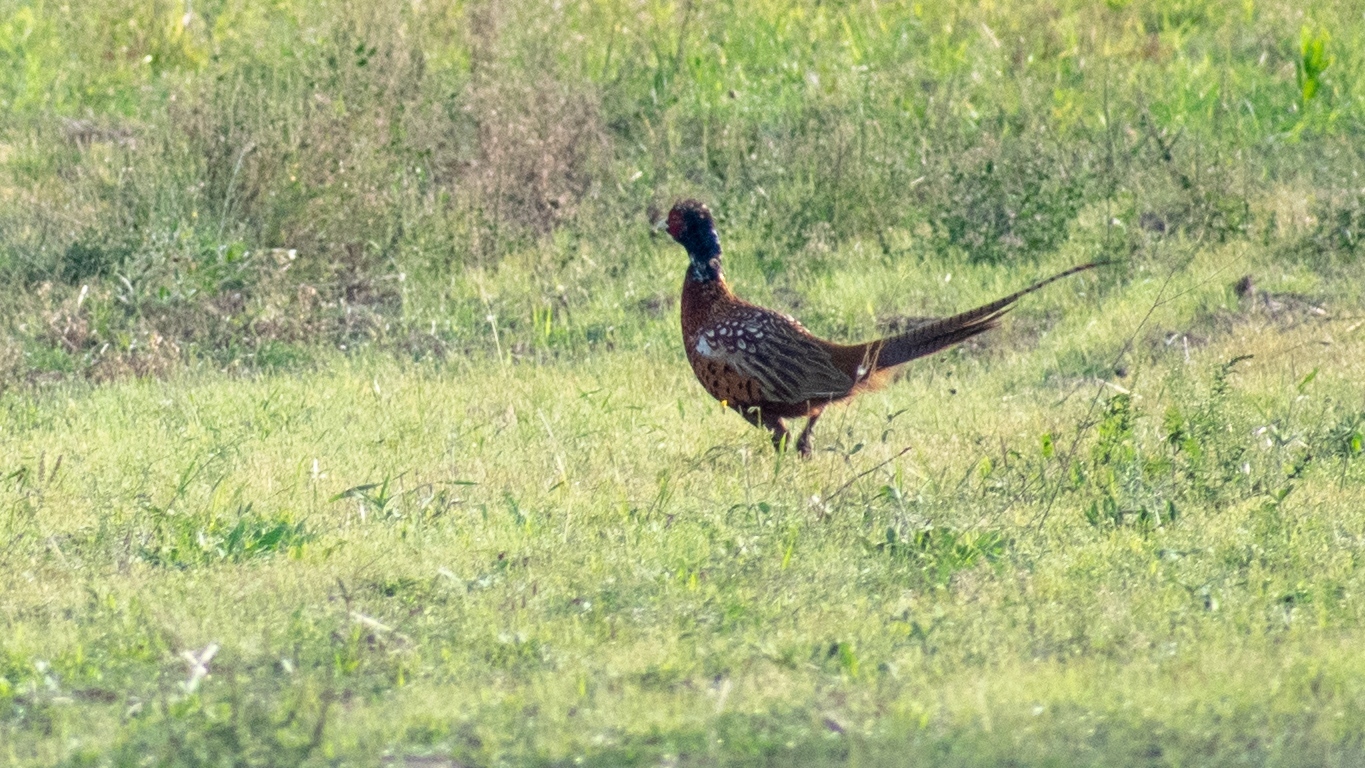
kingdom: Animalia
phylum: Chordata
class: Aves
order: Galliformes
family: Phasianidae
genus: Phasianus
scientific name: Phasianus colchicus
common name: Common pheasant
